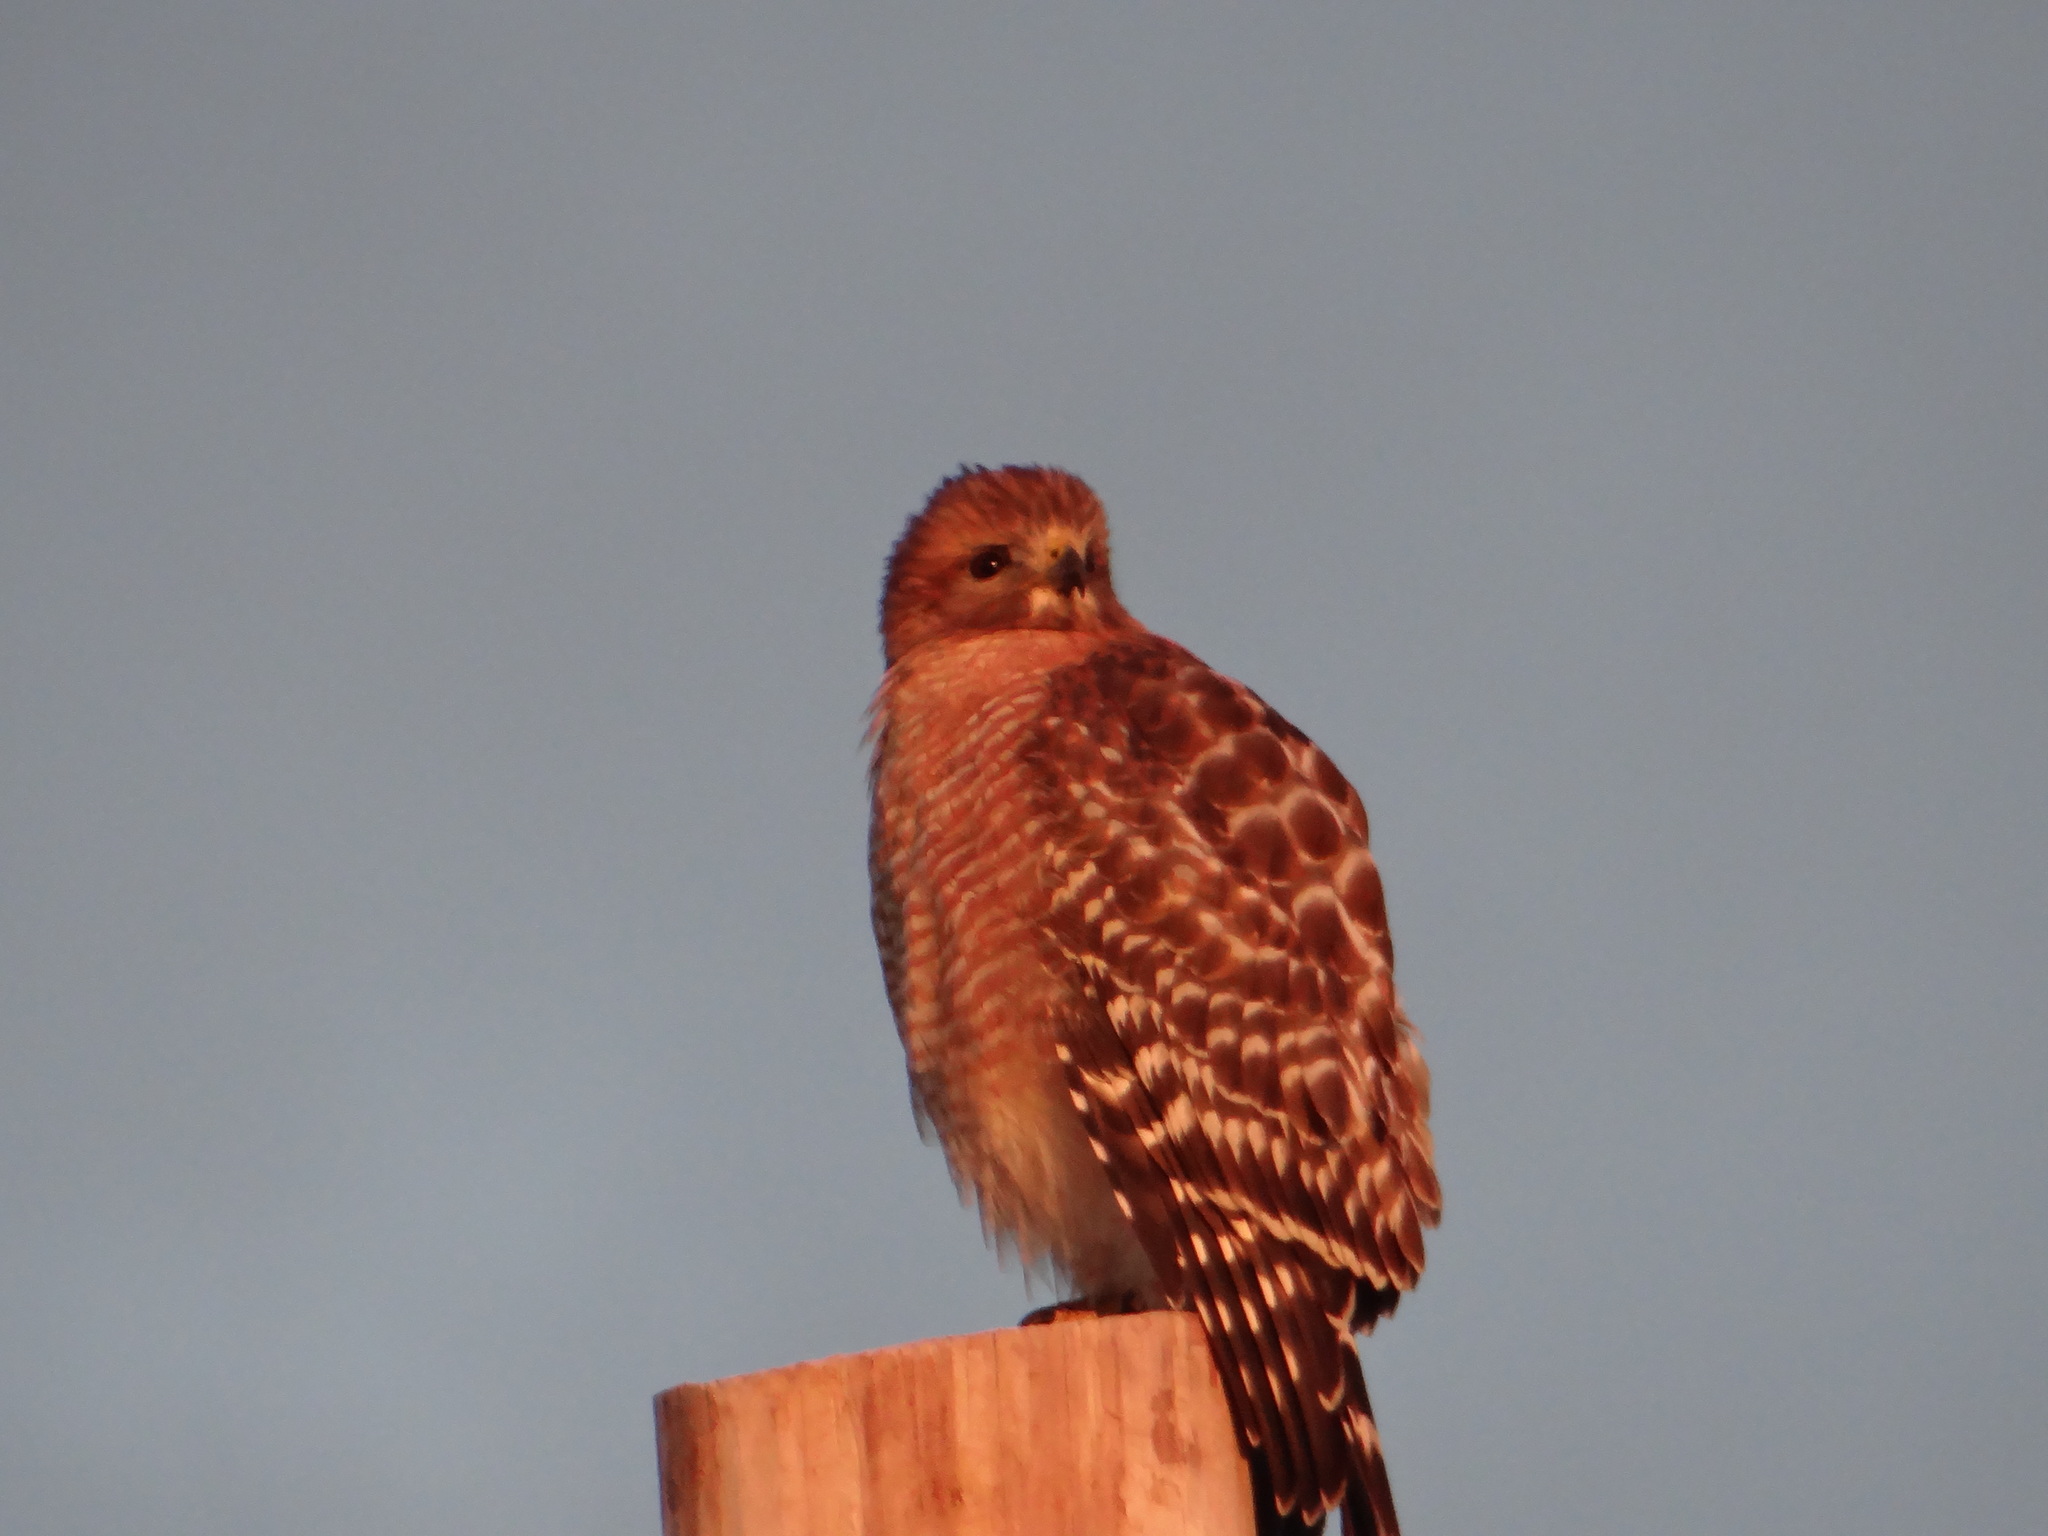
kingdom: Animalia
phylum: Chordata
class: Aves
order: Accipitriformes
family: Accipitridae
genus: Buteo
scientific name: Buteo lineatus
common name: Red-shouldered hawk
